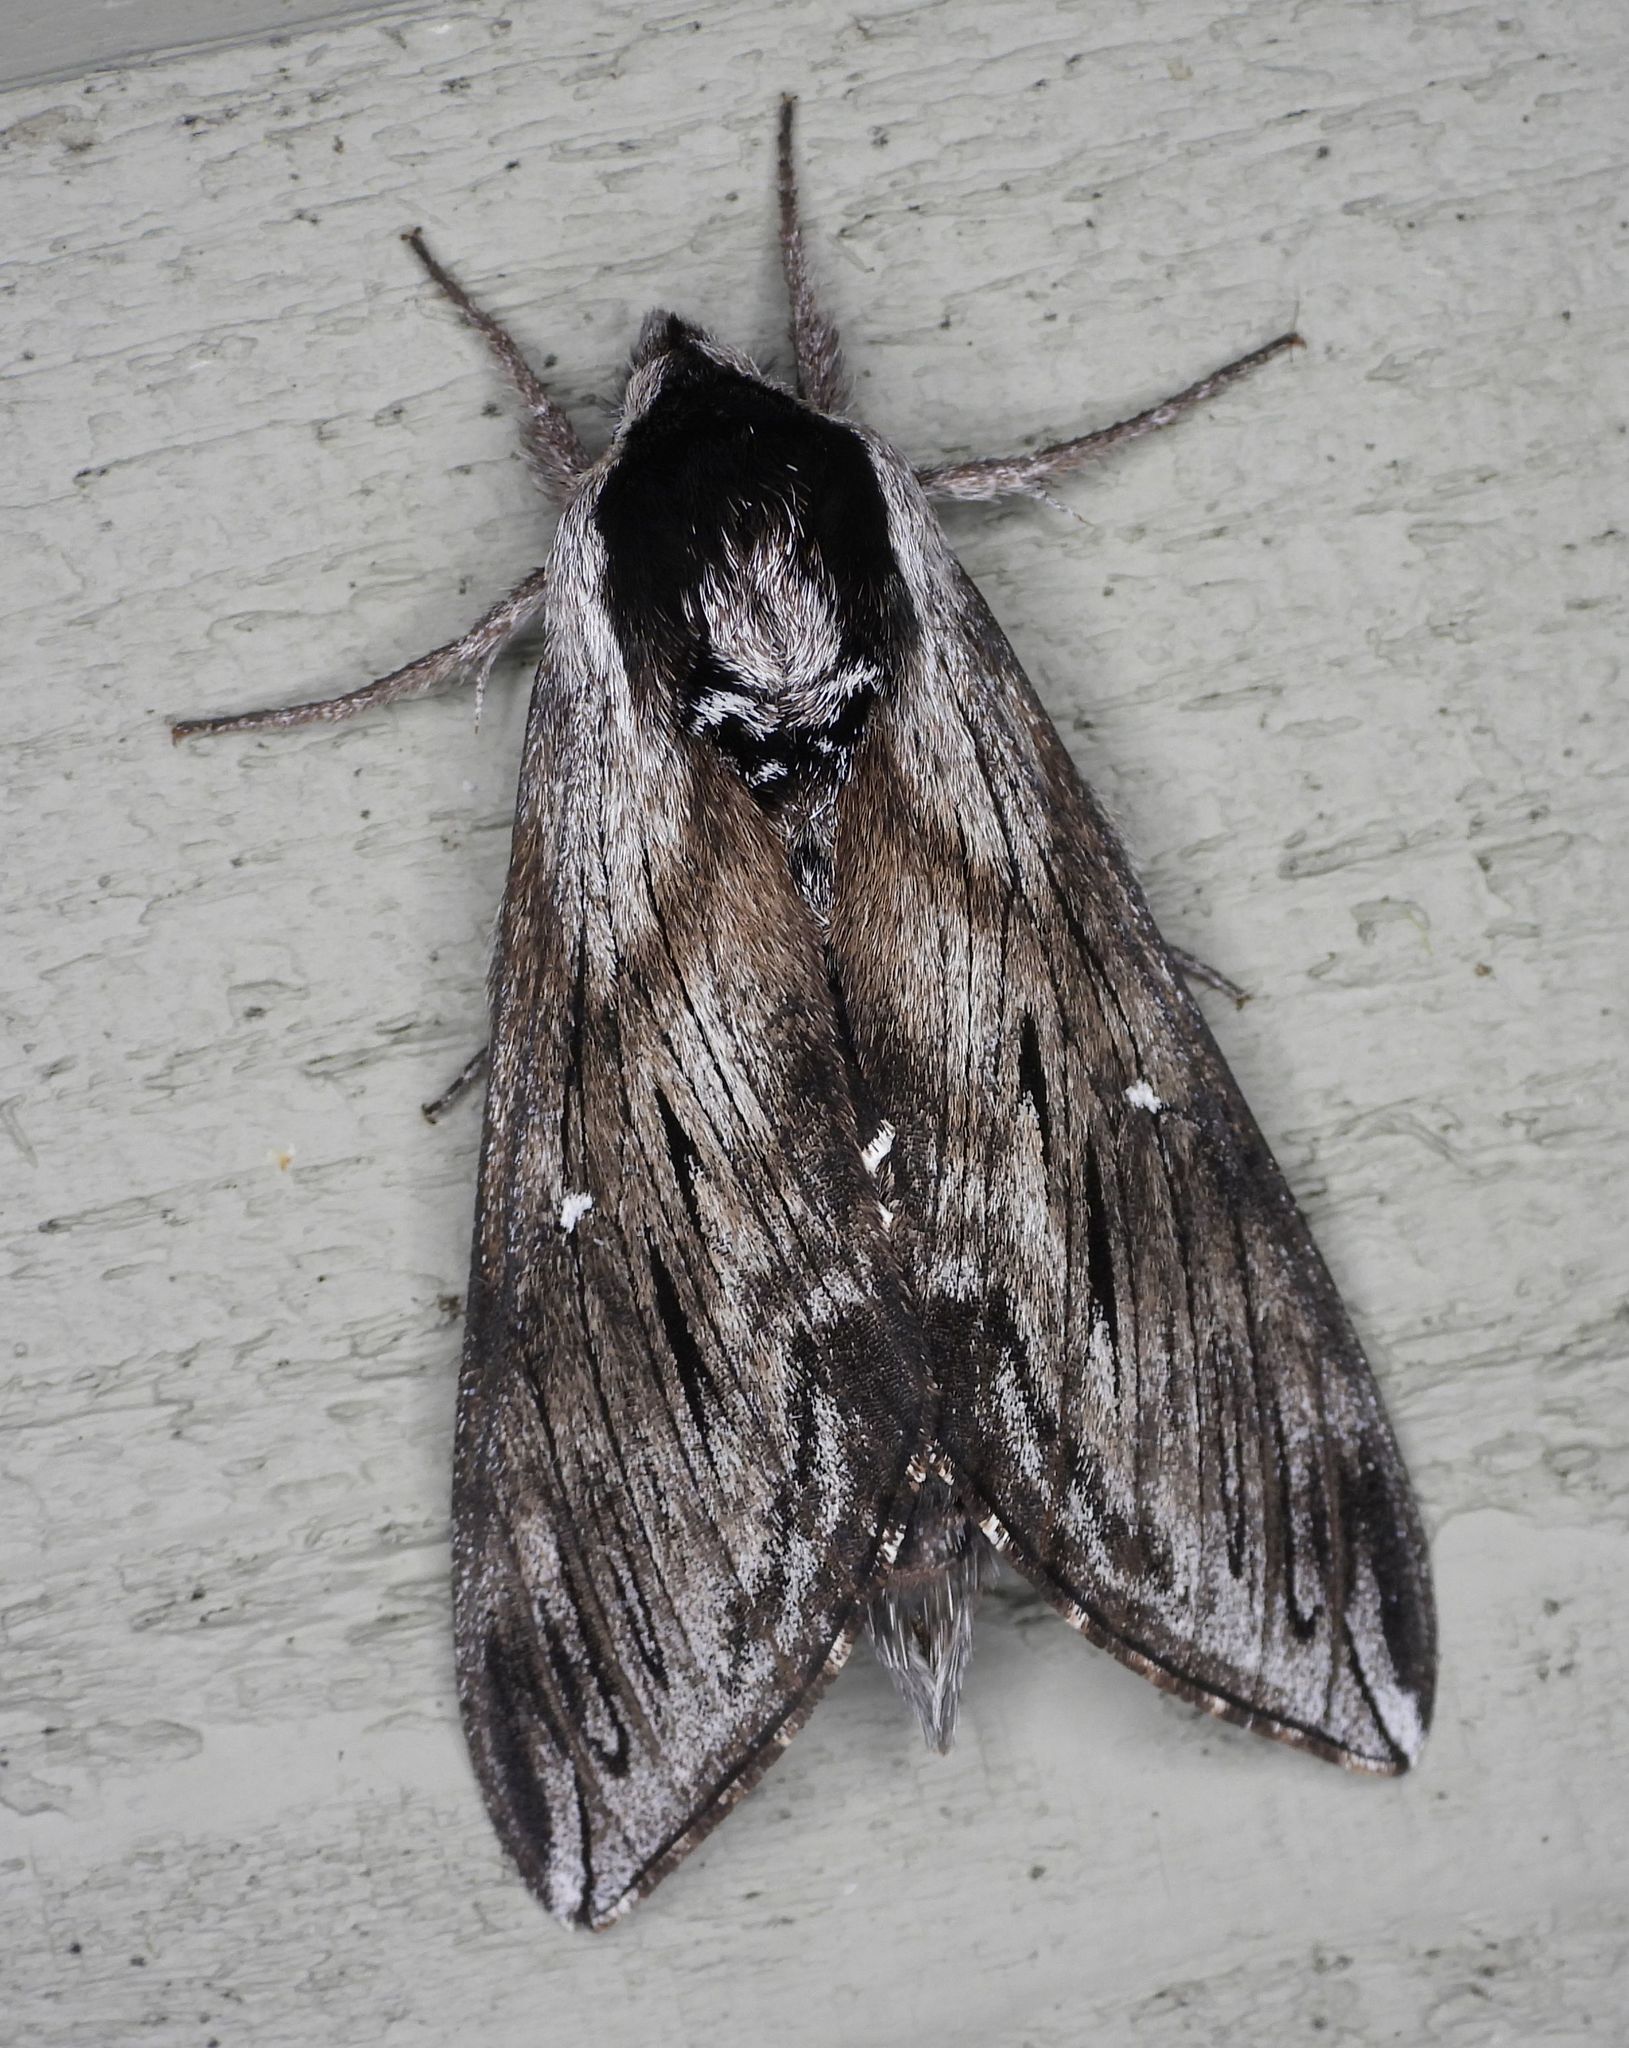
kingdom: Animalia
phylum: Arthropoda
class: Insecta
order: Lepidoptera
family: Sphingidae
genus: Sphinx
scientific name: Sphinx poecila
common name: Northern apple sphinx
